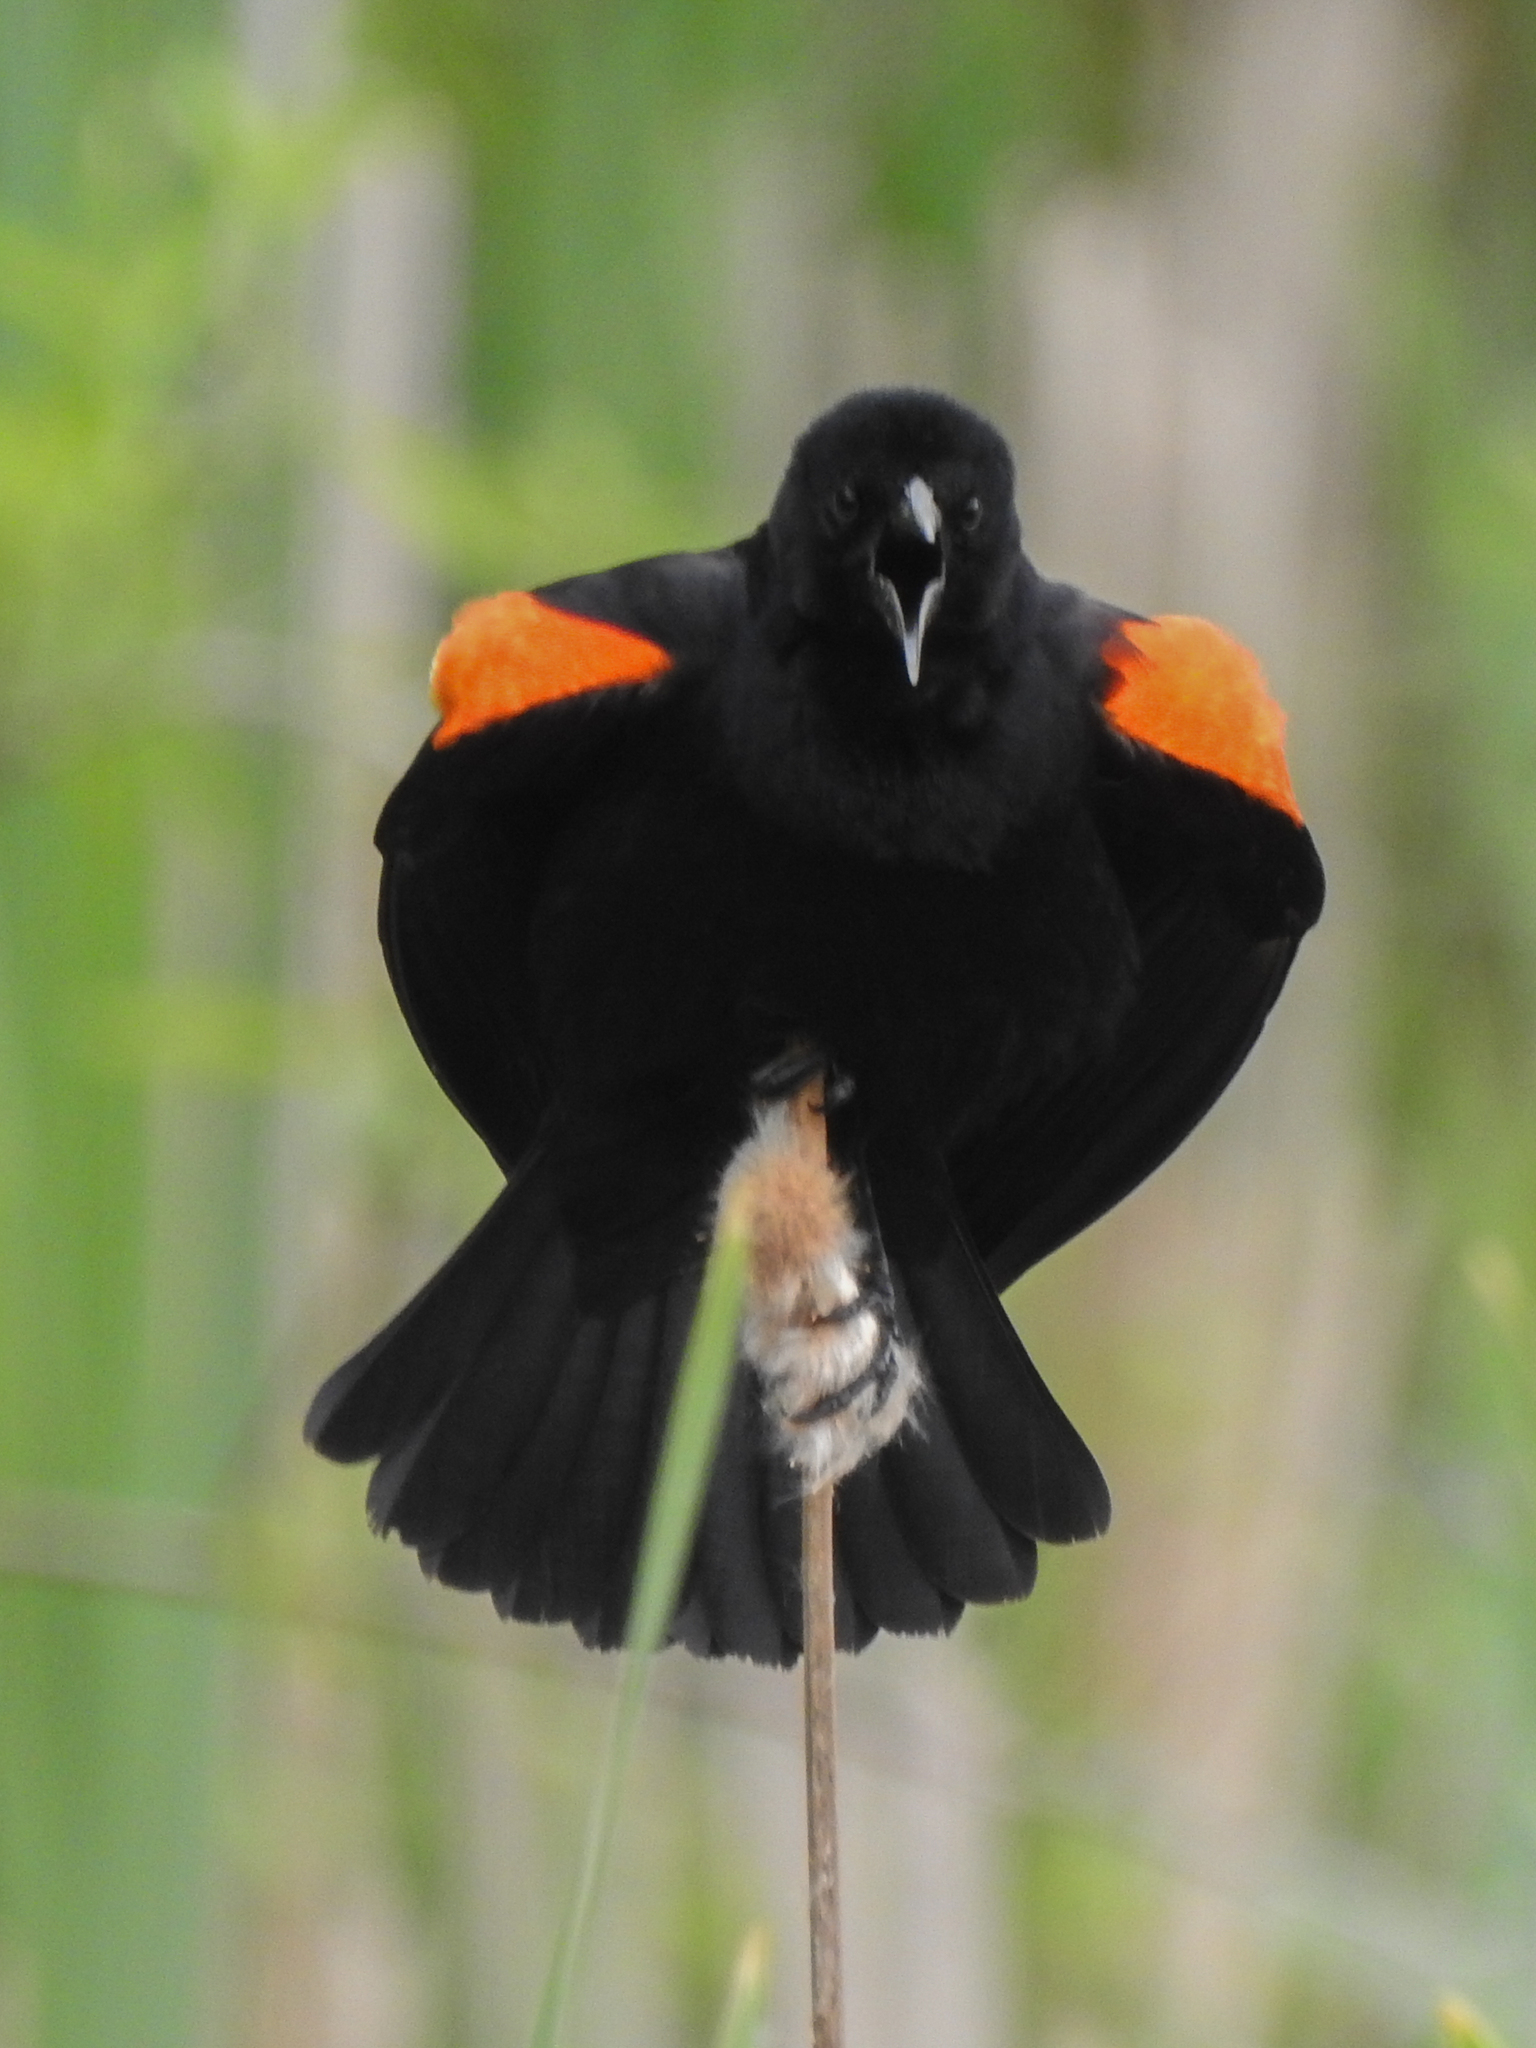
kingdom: Animalia
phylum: Chordata
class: Aves
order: Passeriformes
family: Icteridae
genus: Agelaius
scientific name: Agelaius phoeniceus
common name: Red-winged blackbird
